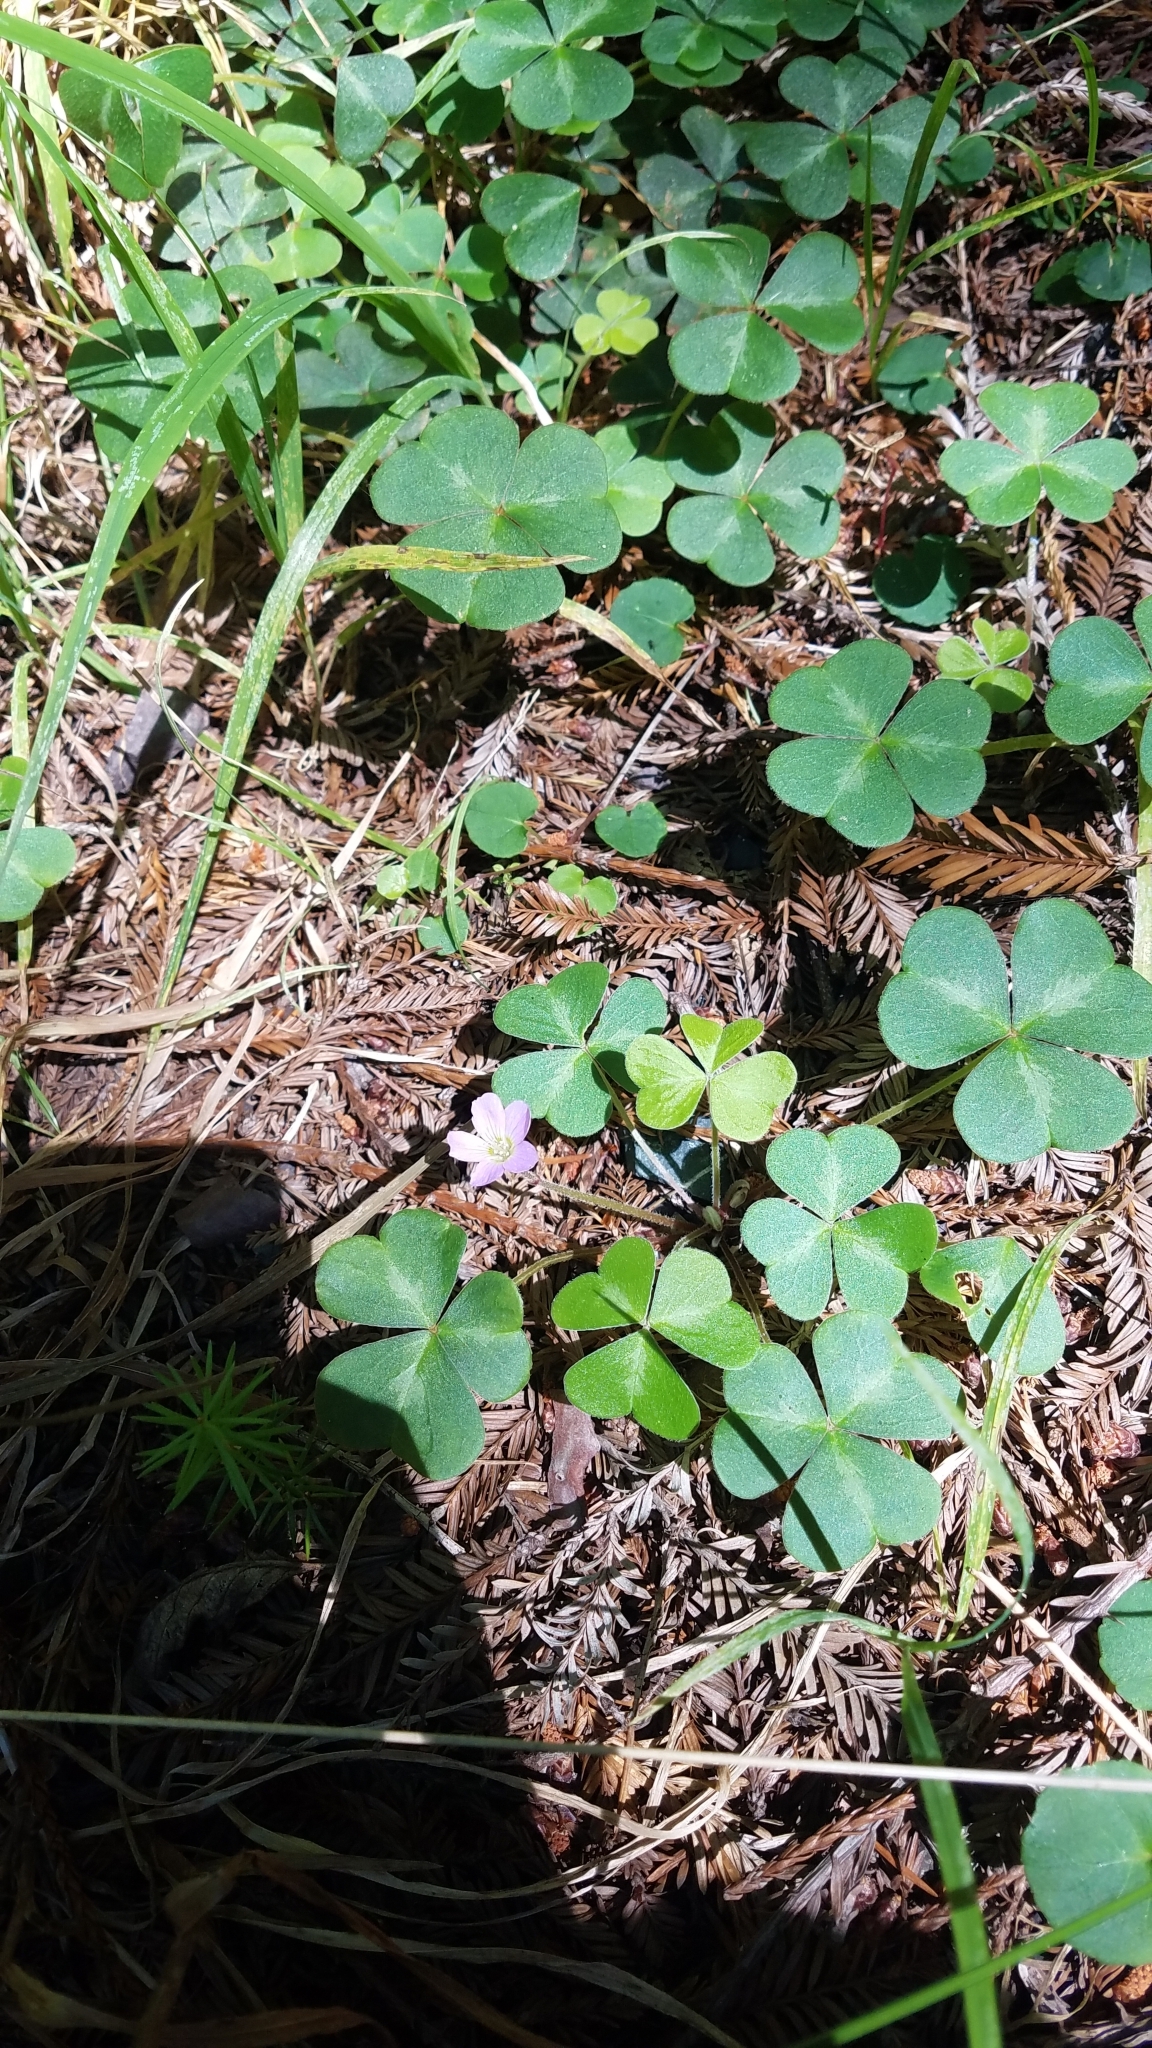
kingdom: Plantae
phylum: Tracheophyta
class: Magnoliopsida
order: Oxalidales
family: Oxalidaceae
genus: Oxalis
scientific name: Oxalis oregana
